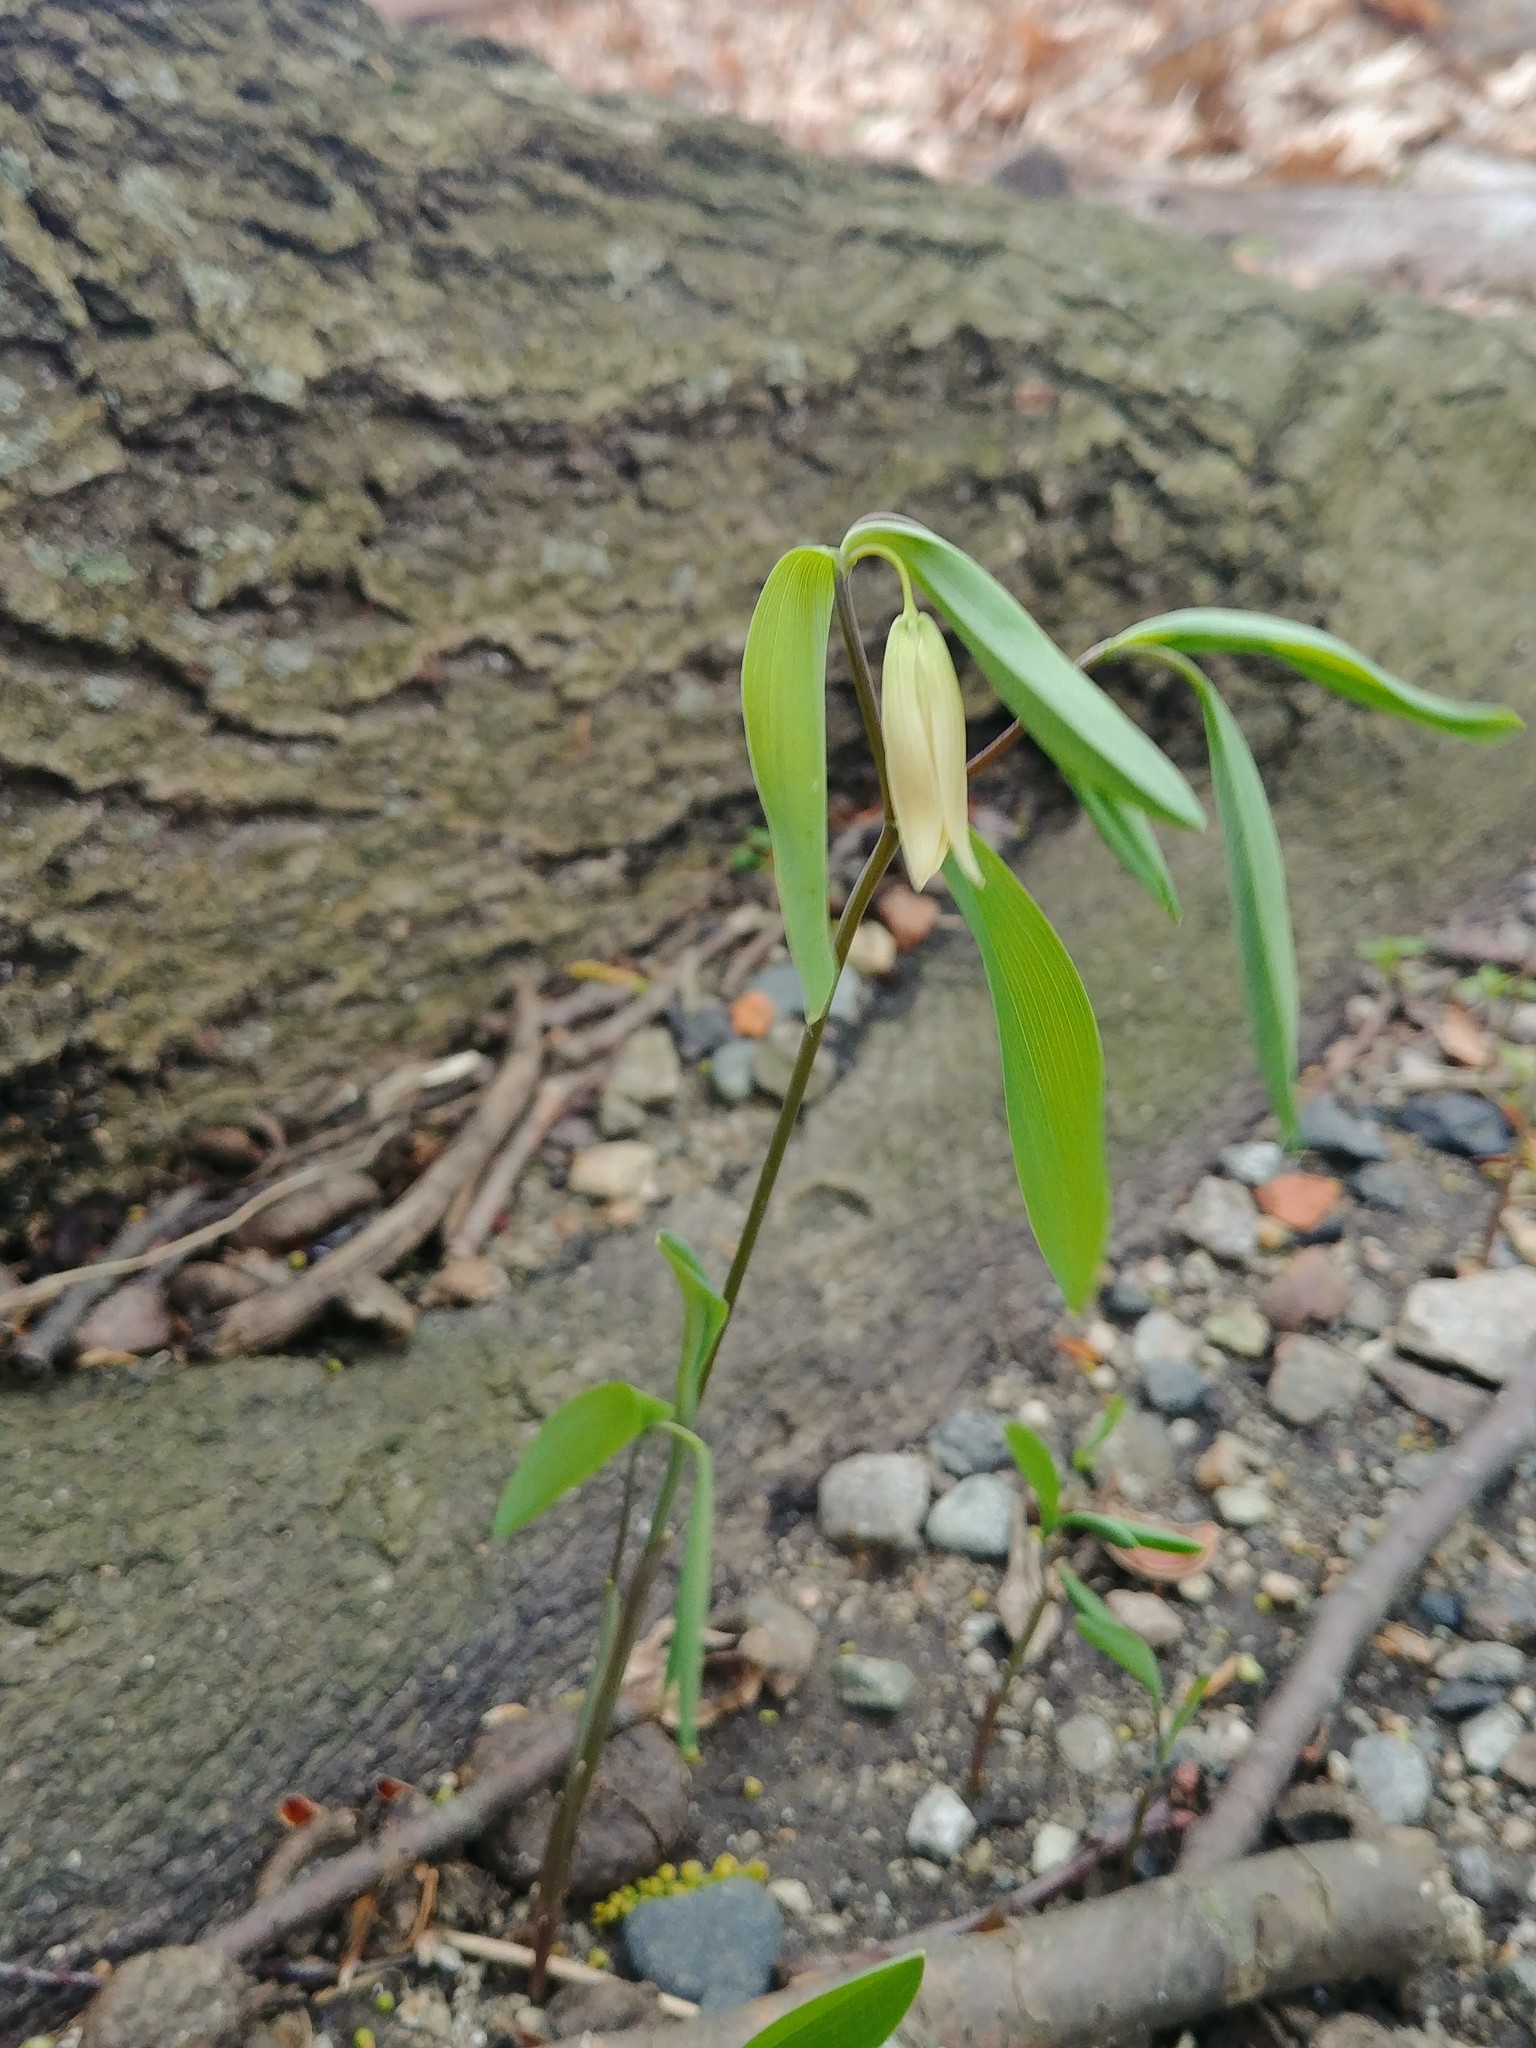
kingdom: Plantae
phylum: Tracheophyta
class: Liliopsida
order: Liliales
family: Colchicaceae
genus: Uvularia
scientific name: Uvularia sessilifolia
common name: Straw-lily
